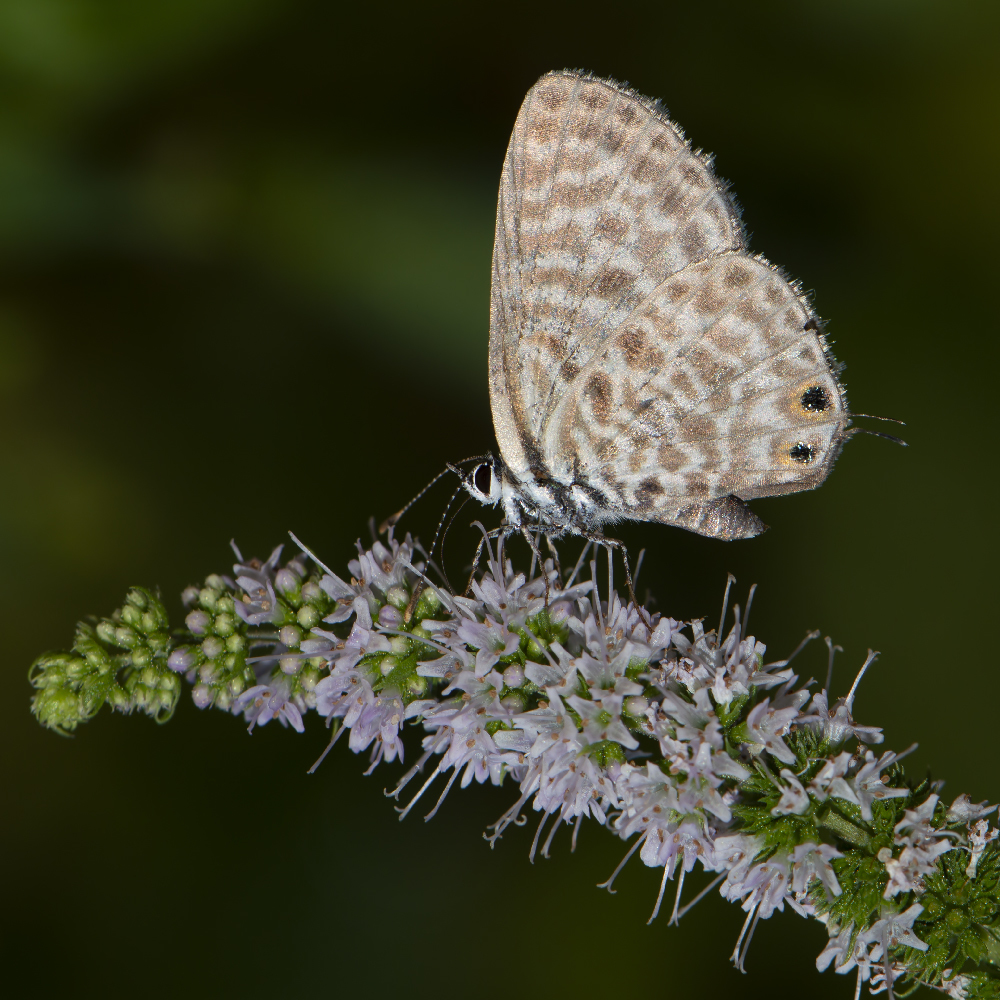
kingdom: Animalia
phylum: Arthropoda
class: Insecta
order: Lepidoptera
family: Lycaenidae
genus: Leptotes
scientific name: Leptotes pirithous
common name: Lang's short-tailed blue
